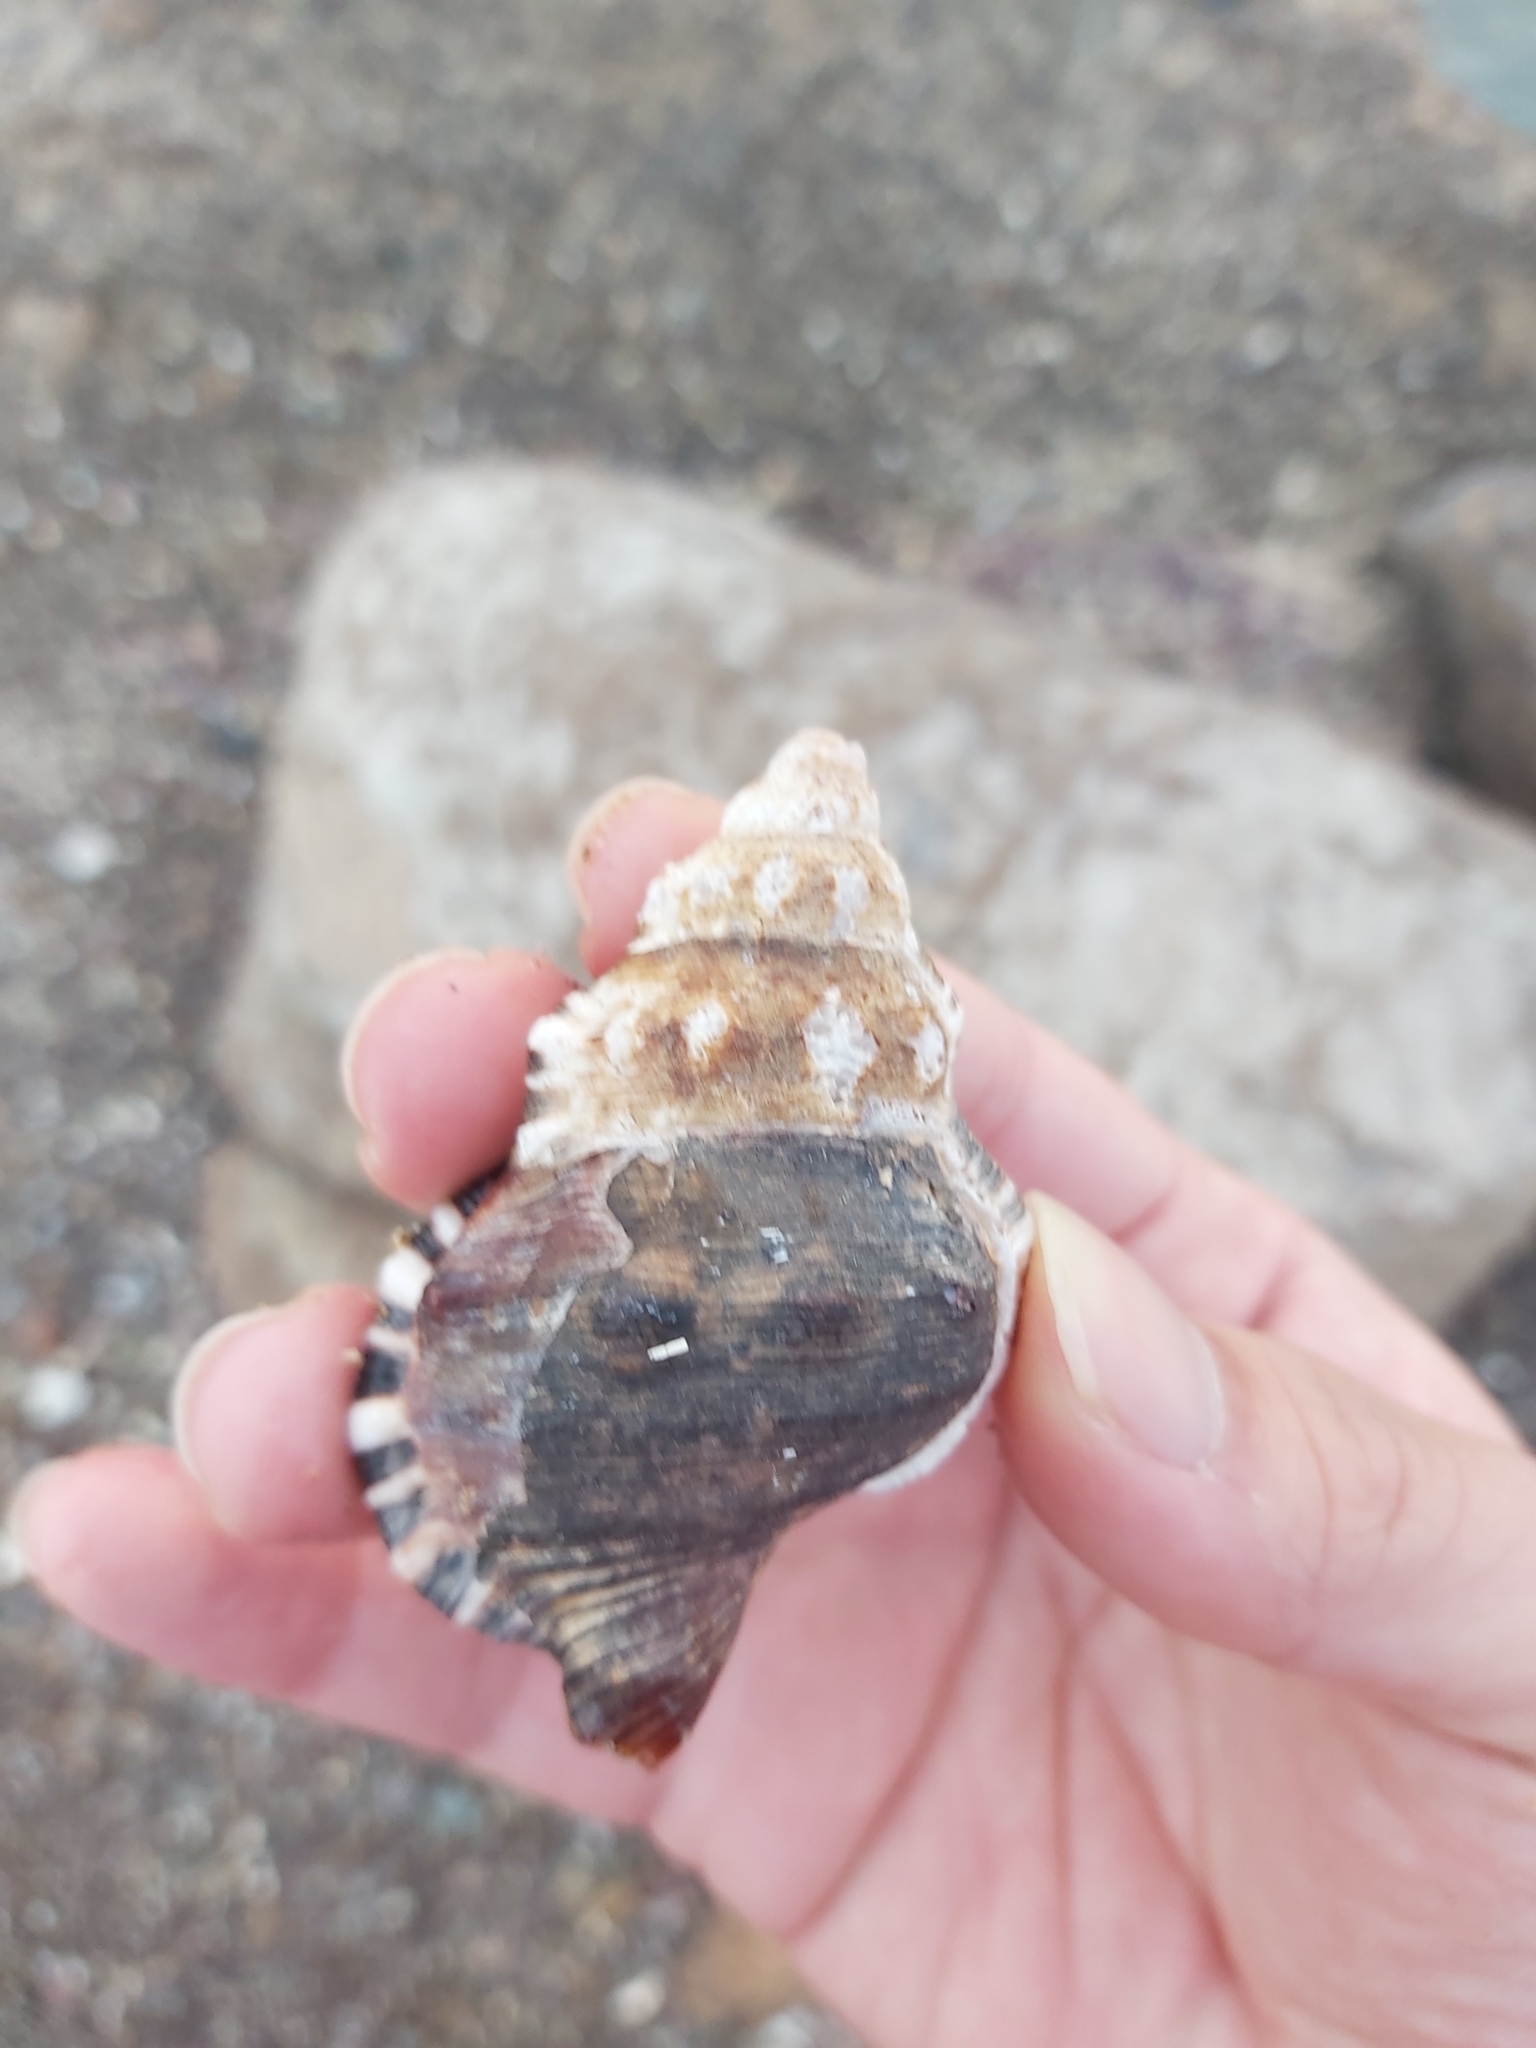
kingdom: Animalia
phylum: Mollusca
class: Gastropoda
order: Littorinimorpha
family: Ranellidae
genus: Ranella
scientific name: Ranella australasia
